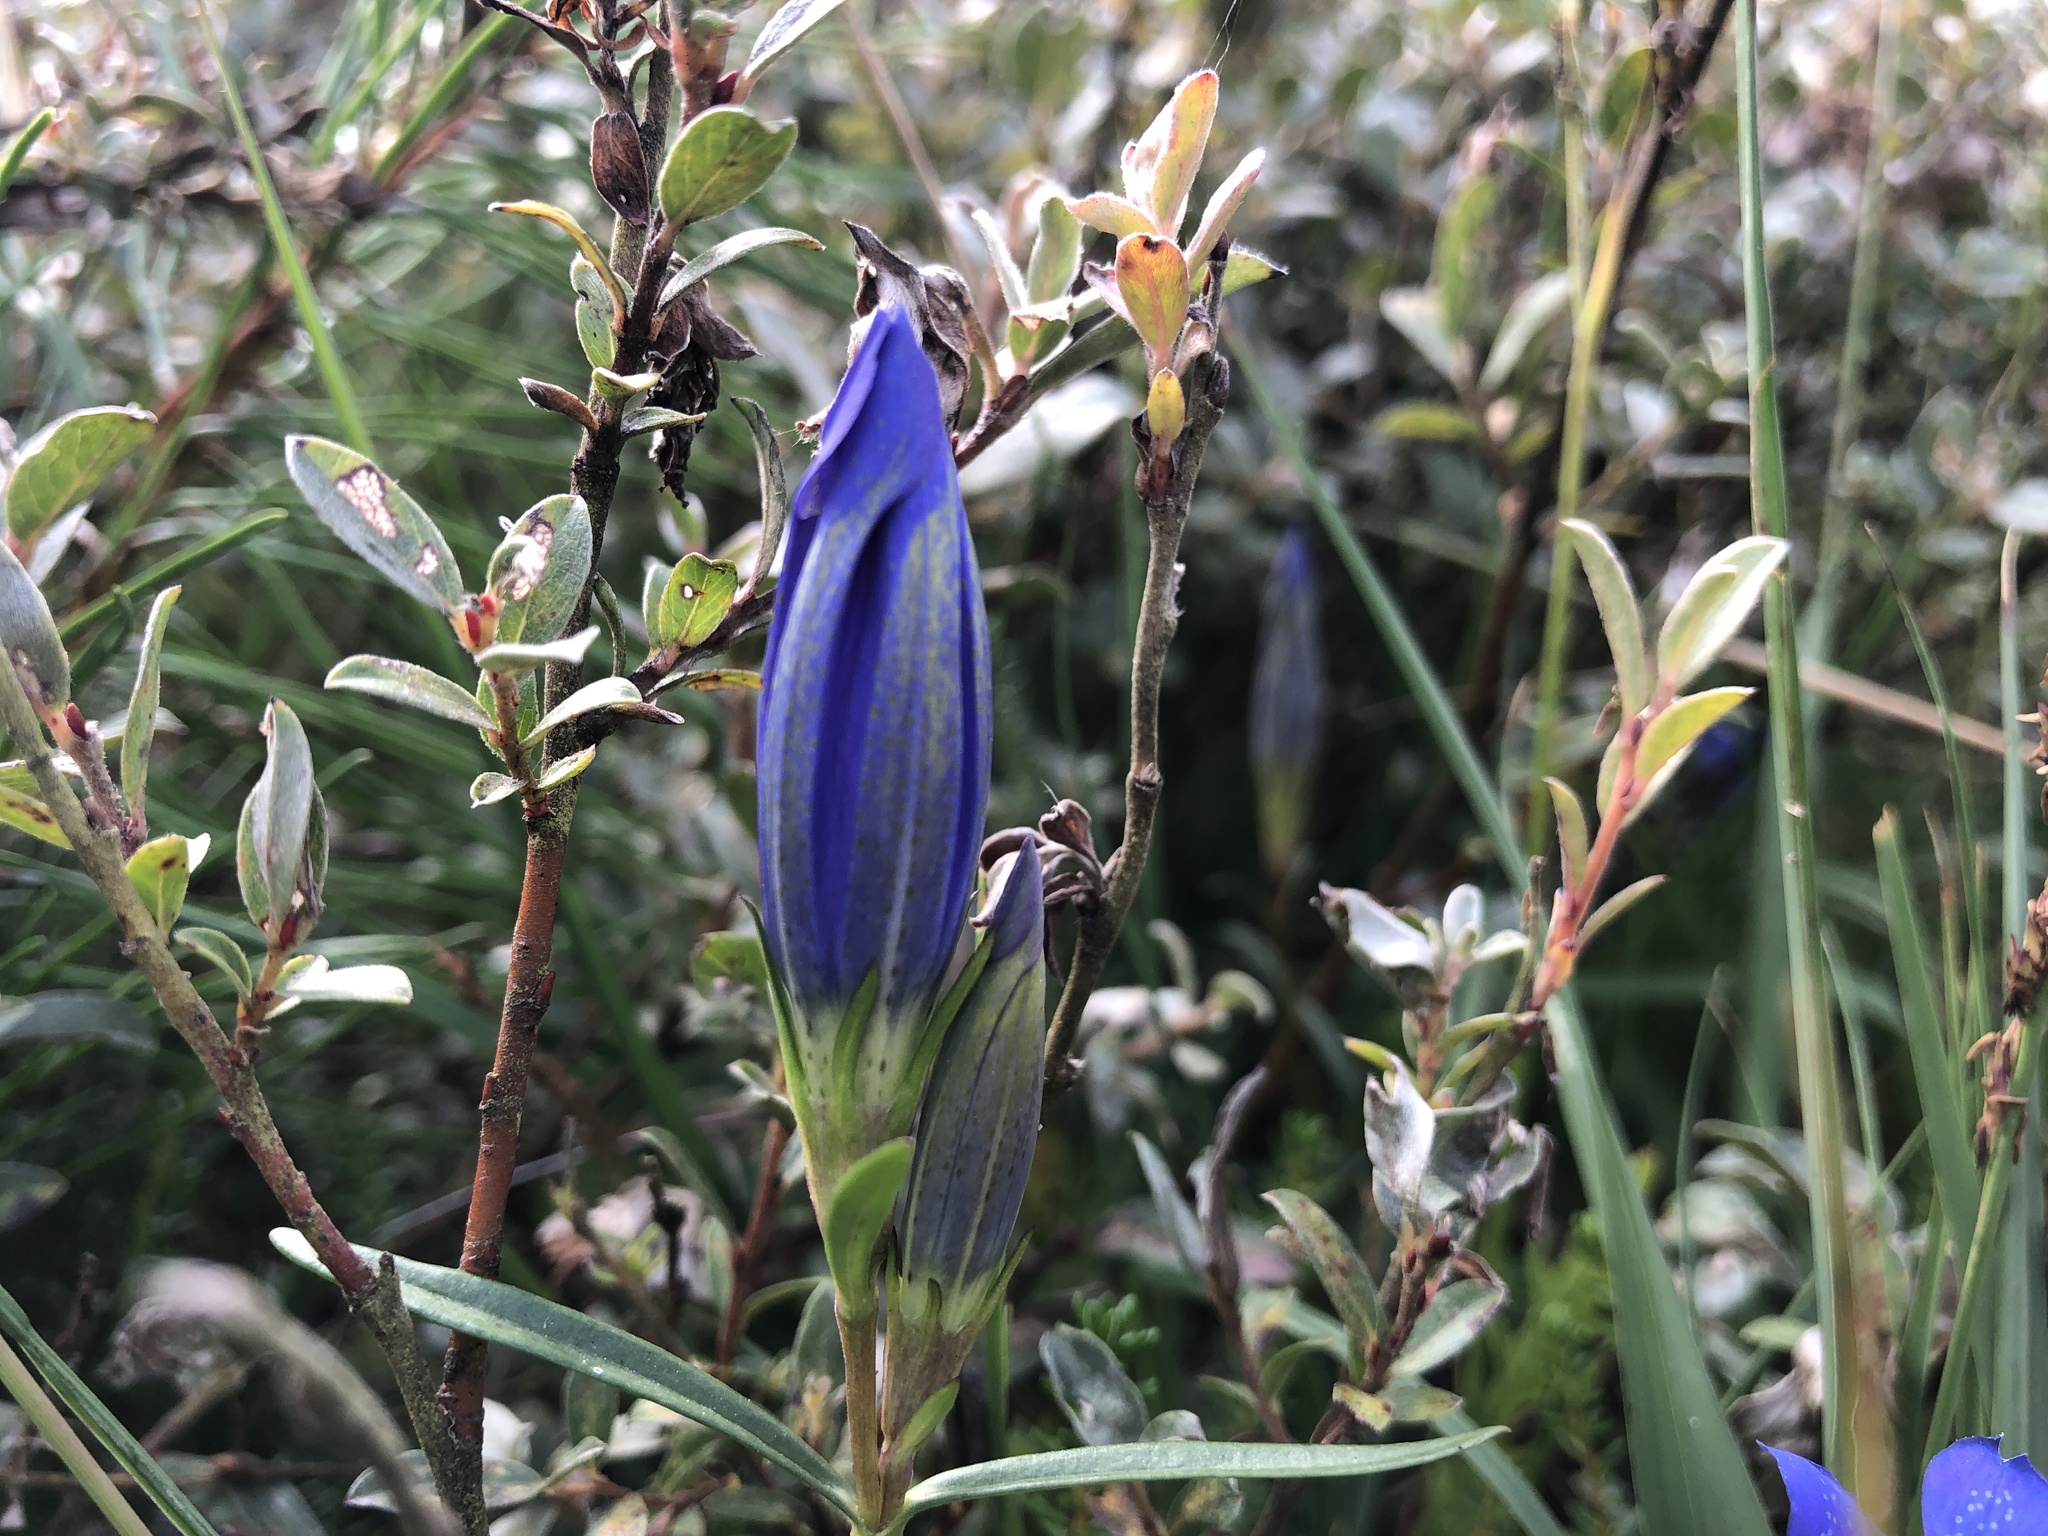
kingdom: Plantae
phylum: Tracheophyta
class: Magnoliopsida
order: Gentianales
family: Gentianaceae
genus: Gentiana
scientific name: Gentiana pneumonanthe
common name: Marsh gentian
